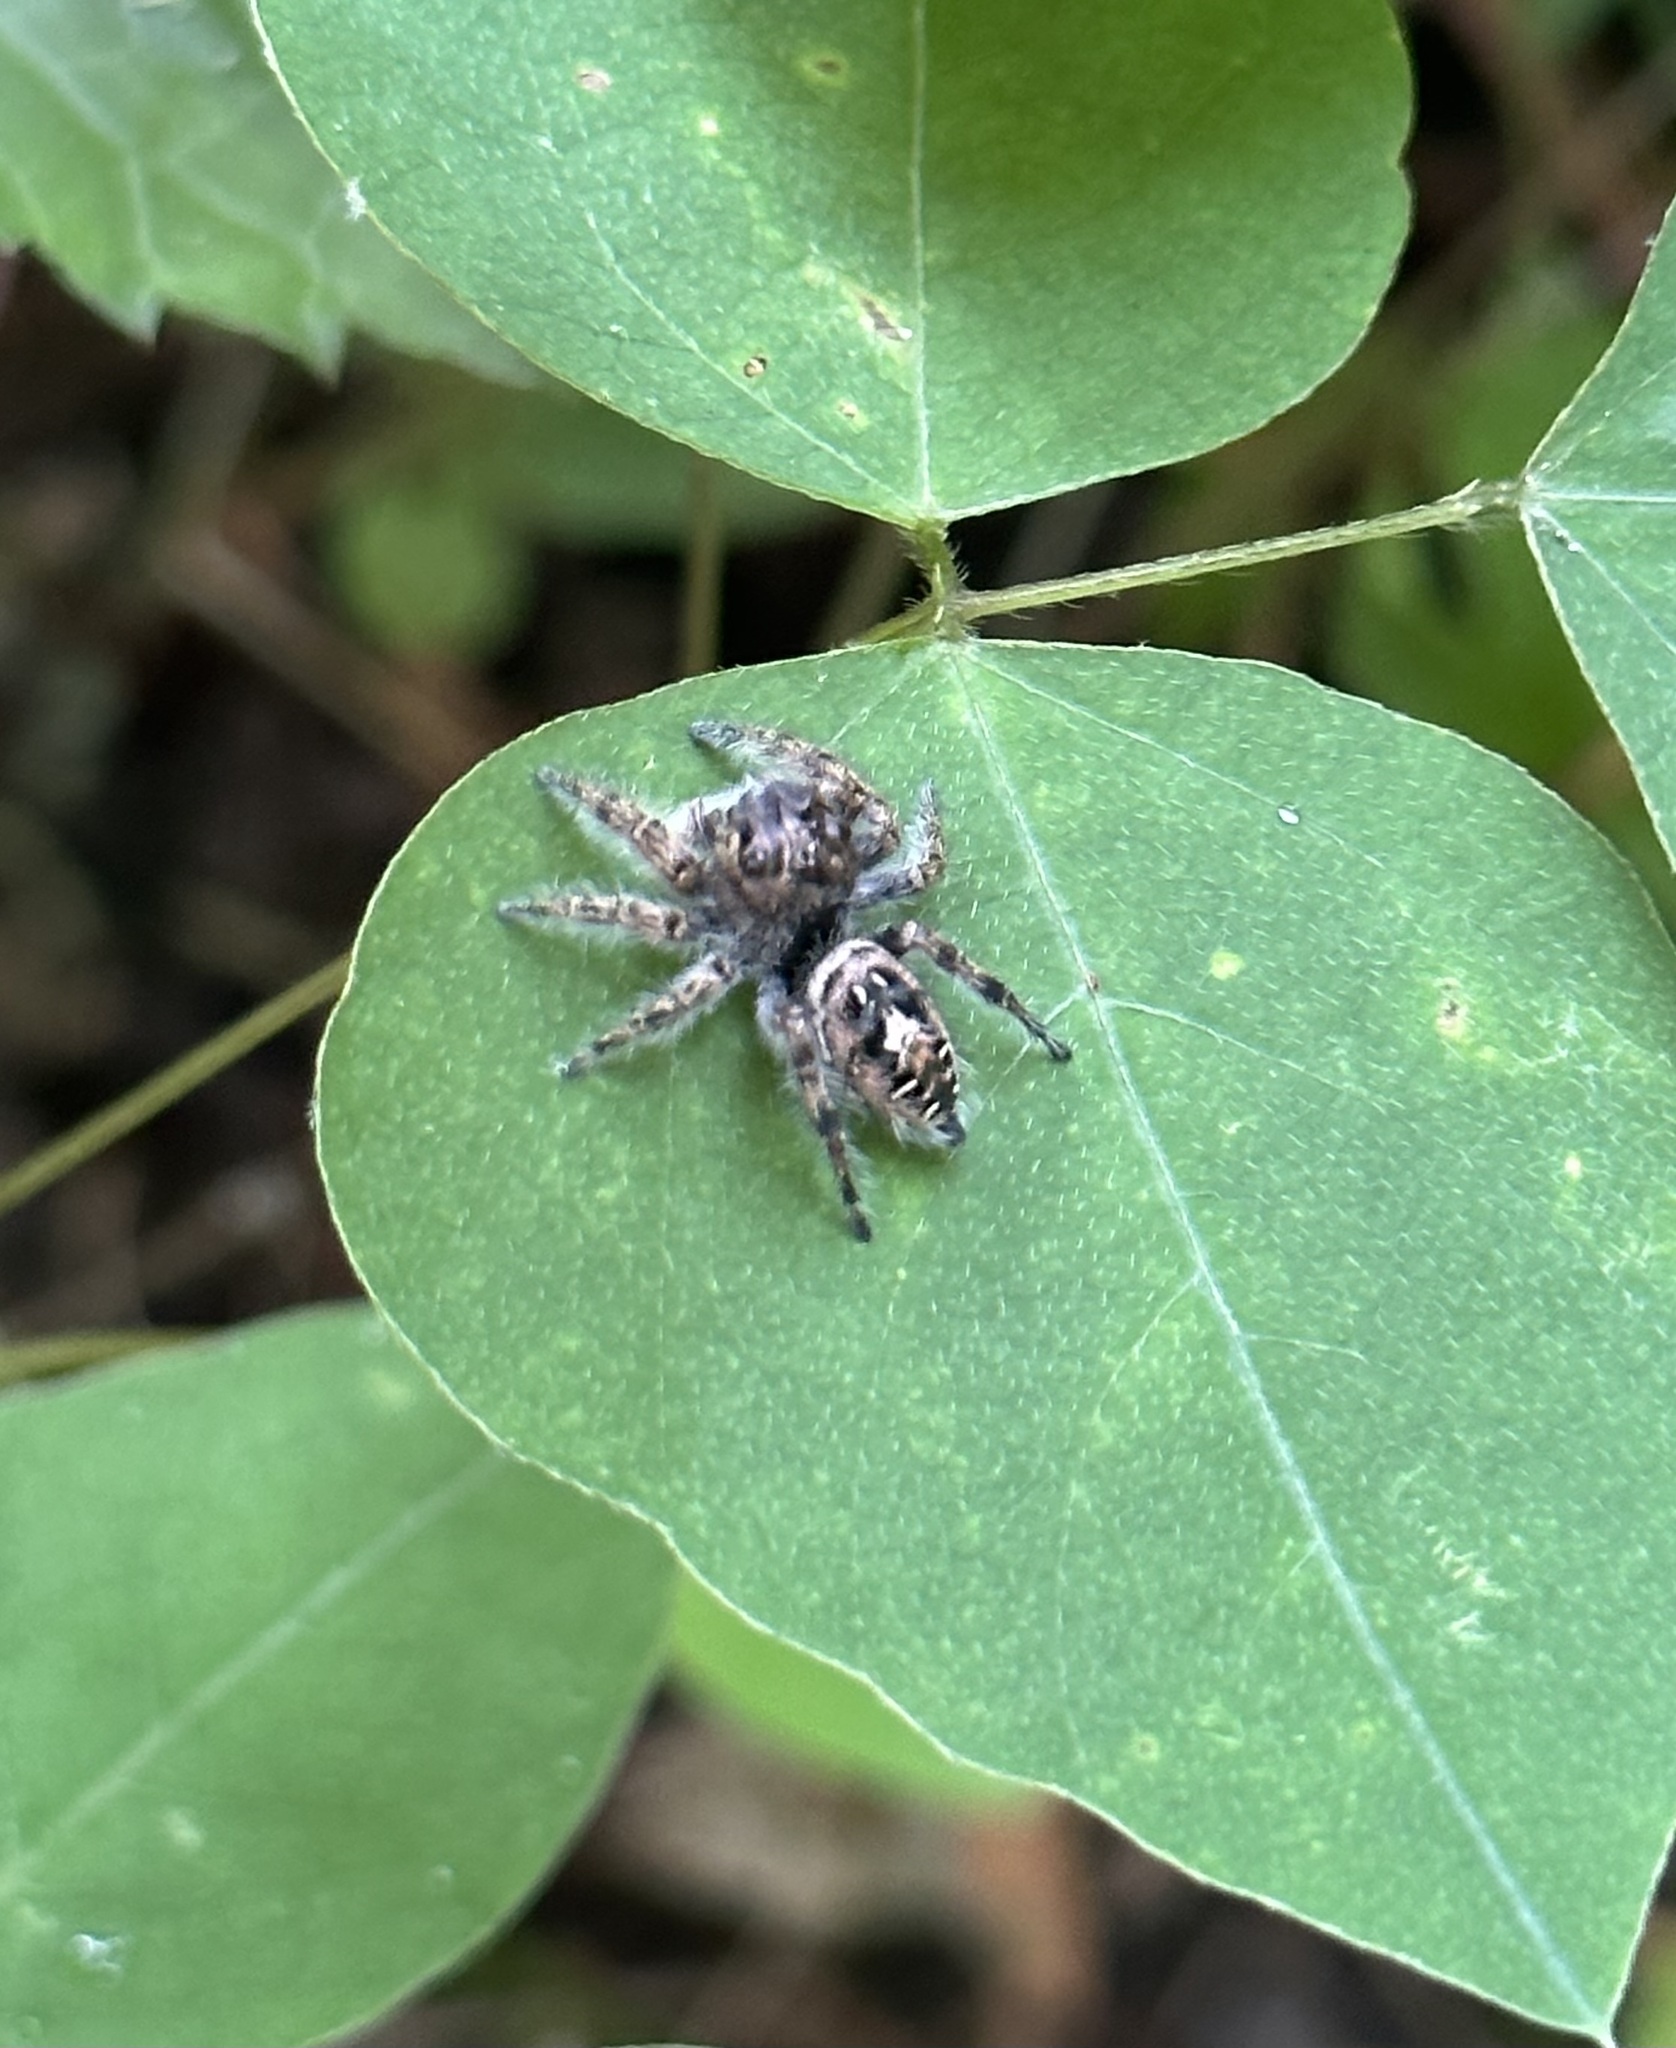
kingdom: Animalia
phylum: Arthropoda
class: Arachnida
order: Araneae
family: Salticidae
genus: Phidippus
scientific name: Phidippus putnami
